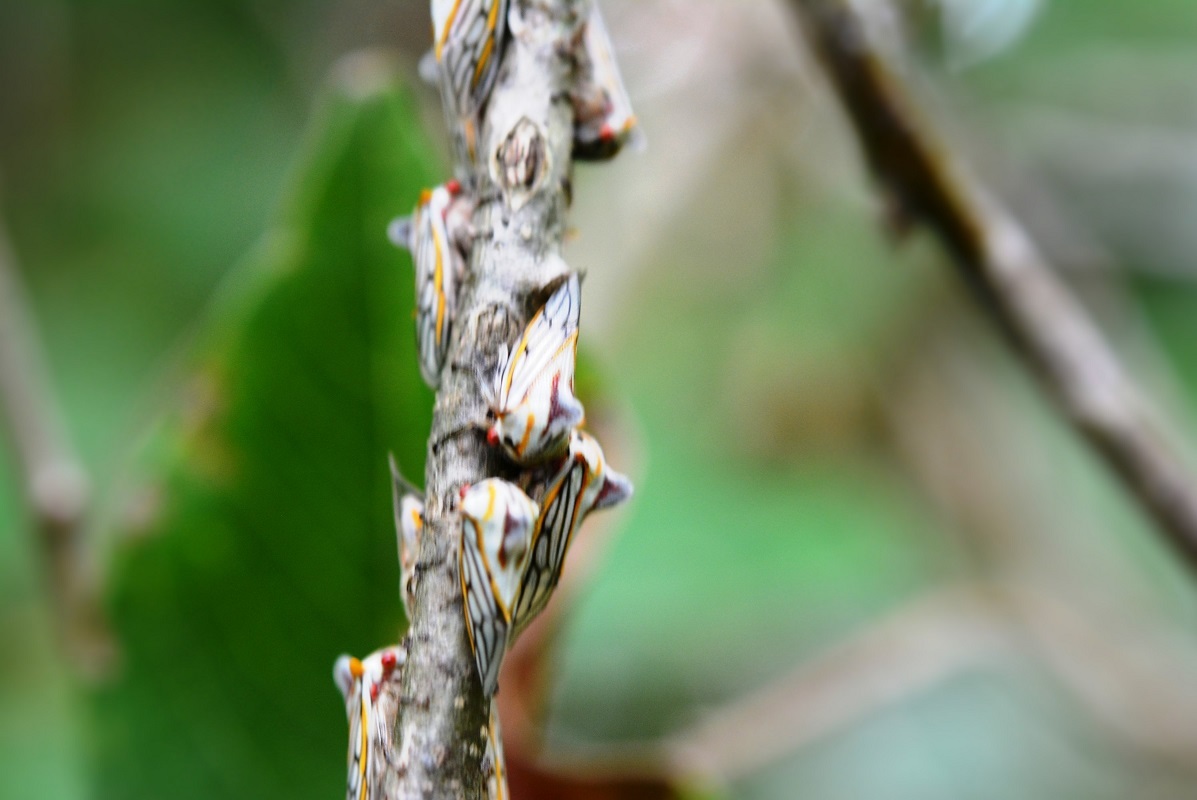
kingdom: Animalia
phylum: Arthropoda
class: Insecta
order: Hemiptera
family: Membracidae
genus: Platycotis
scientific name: Platycotis vittatus
